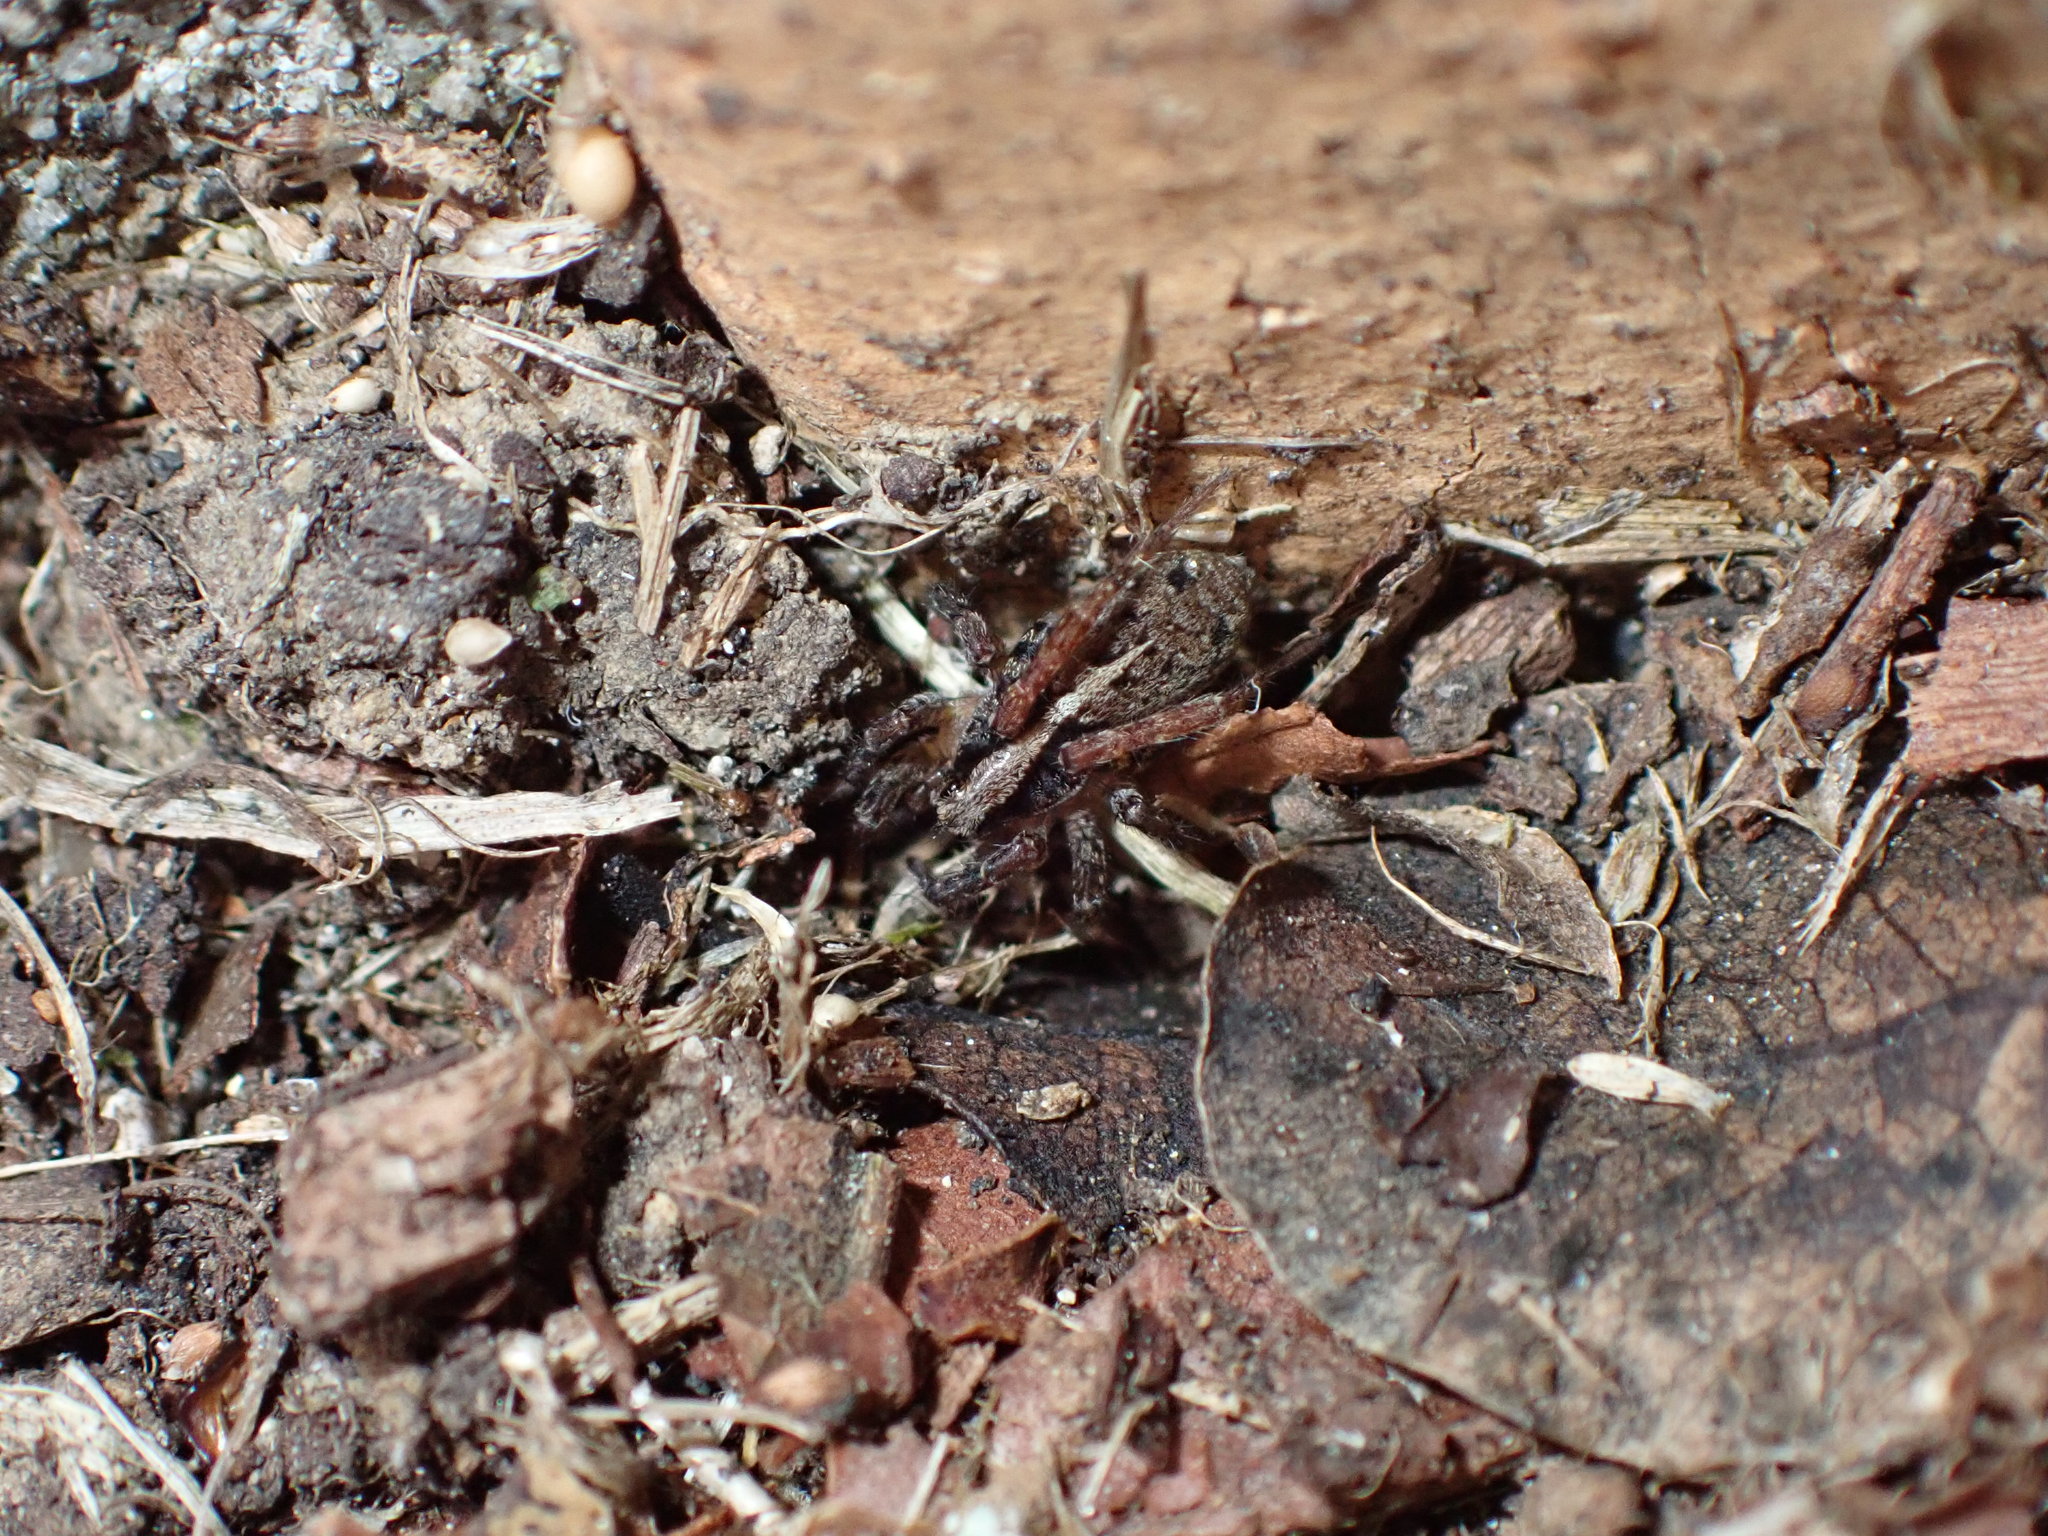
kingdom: Animalia
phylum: Arthropoda
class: Arachnida
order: Araneae
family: Lycosidae
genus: Anoteropsis
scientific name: Anoteropsis hilaris
